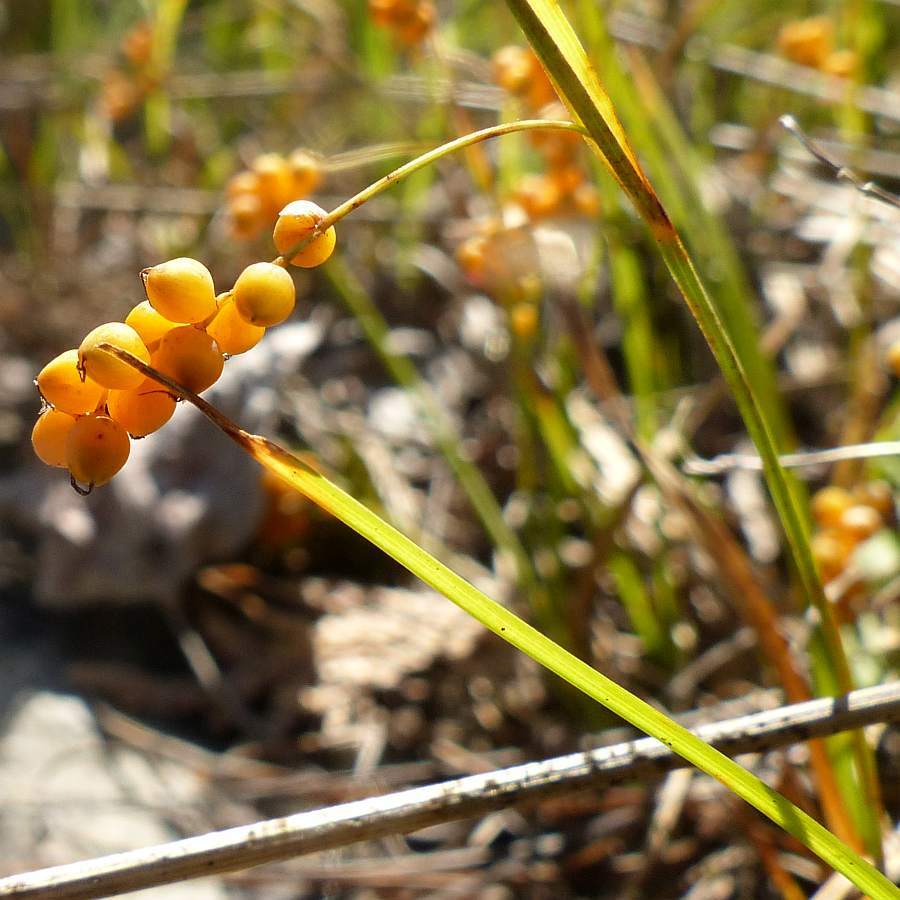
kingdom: Plantae
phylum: Tracheophyta
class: Liliopsida
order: Poales
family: Cyperaceae
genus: Carex
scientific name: Carex aurea
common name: Golden sedge
